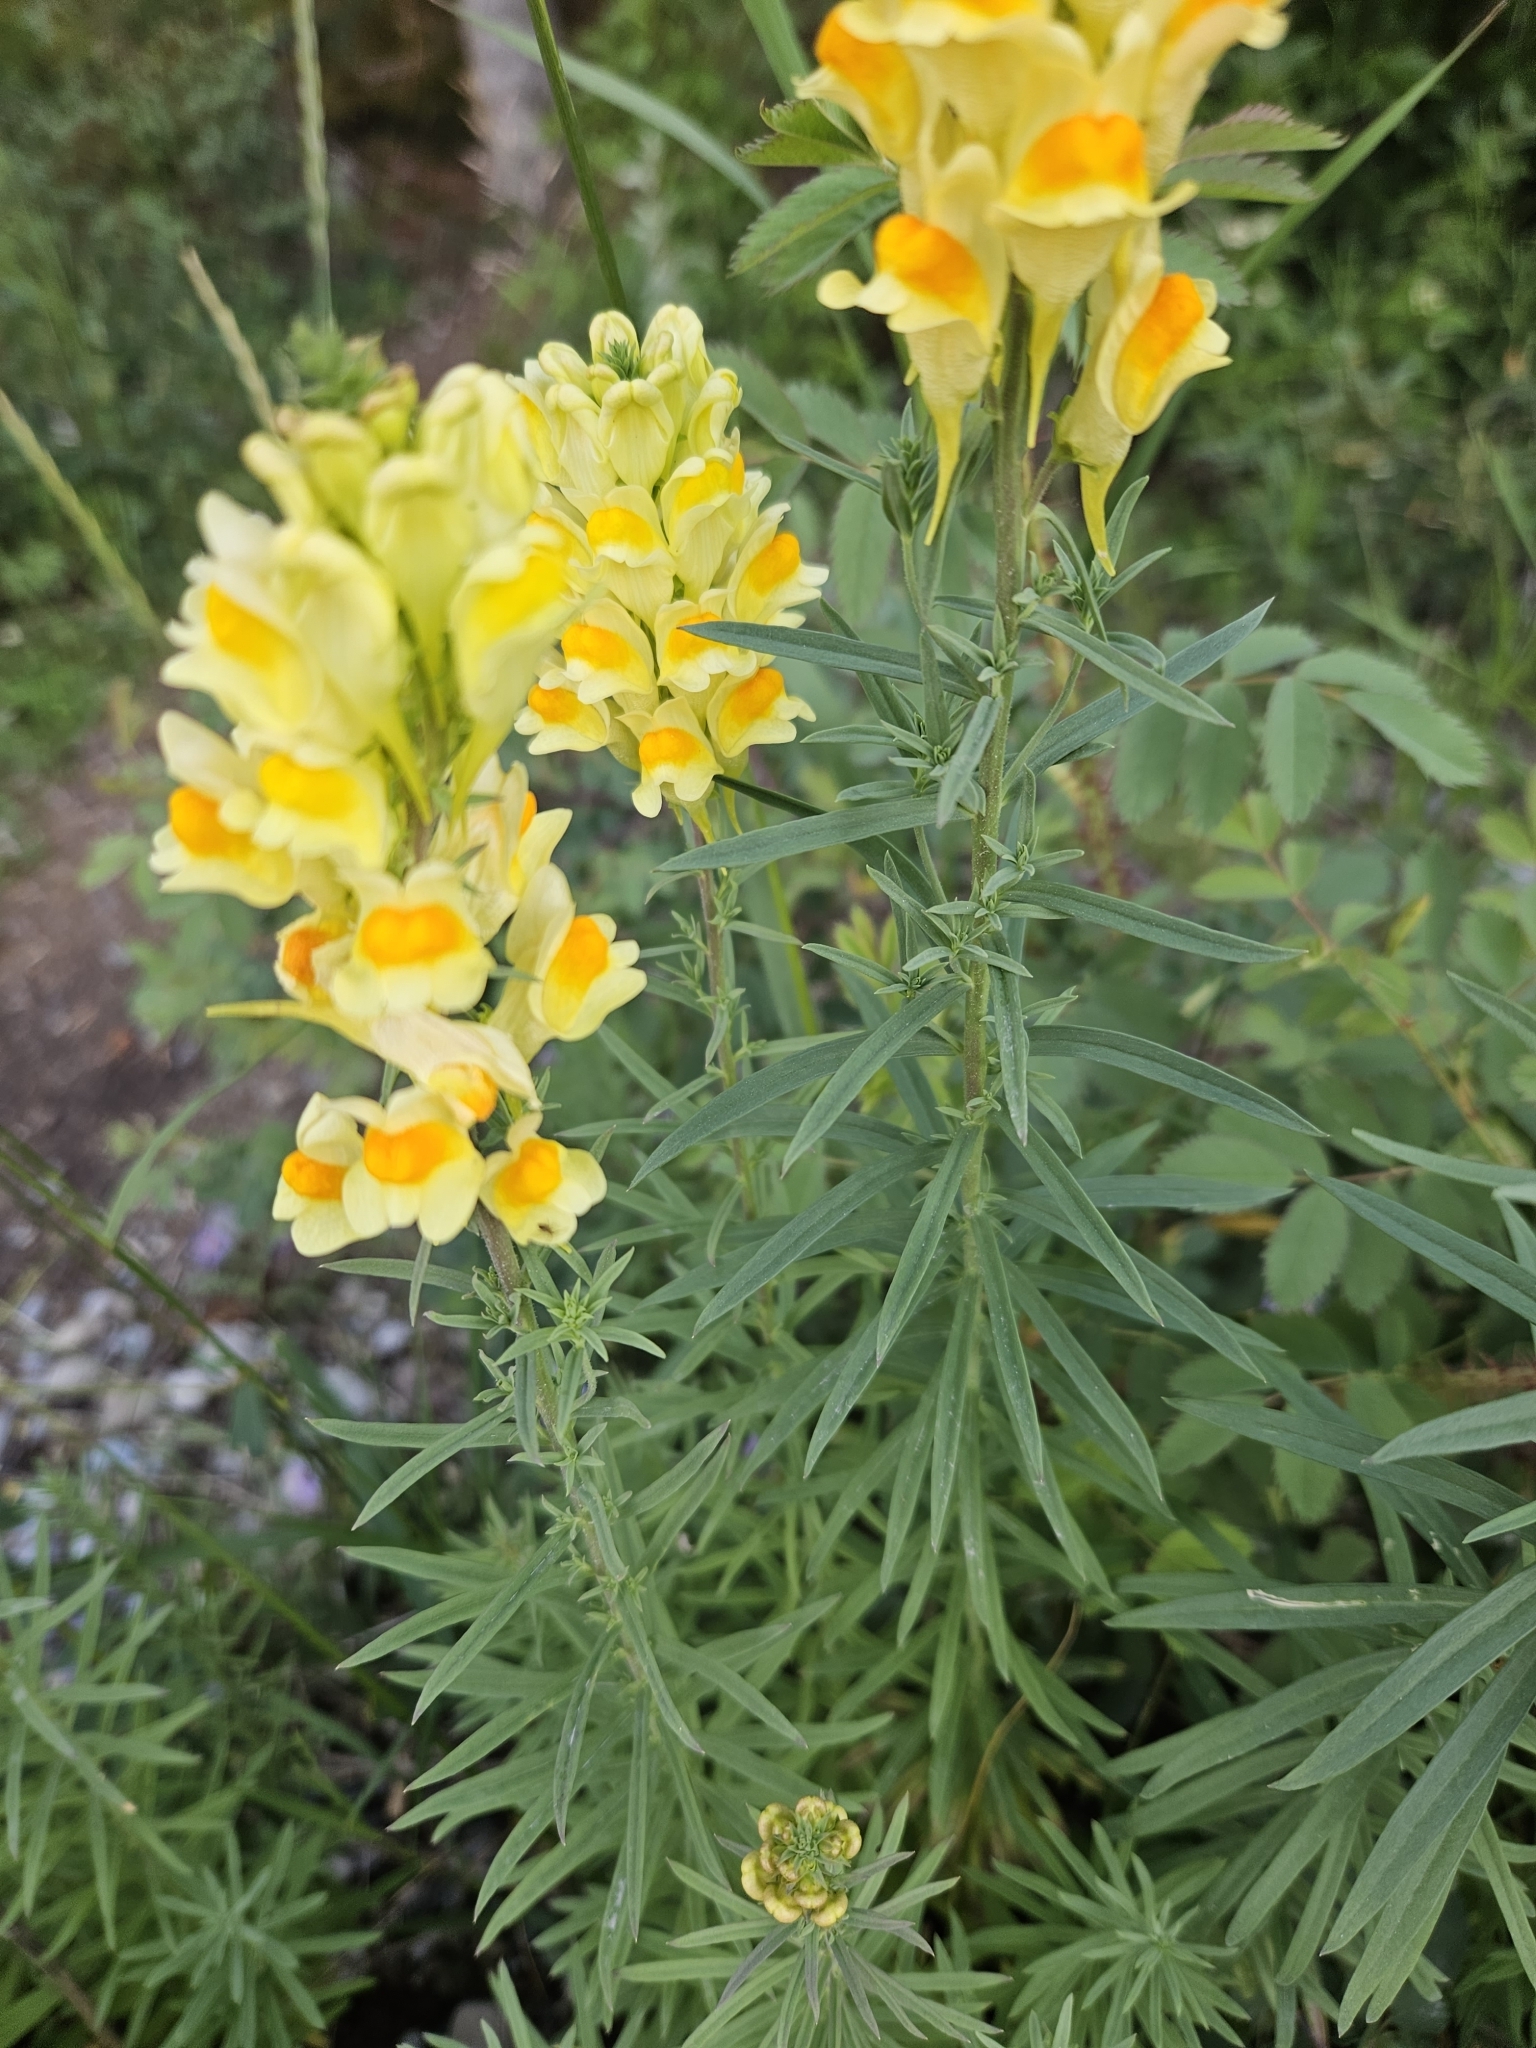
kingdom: Plantae
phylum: Tracheophyta
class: Magnoliopsida
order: Lamiales
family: Plantaginaceae
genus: Linaria
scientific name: Linaria vulgaris
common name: Butter and eggs
